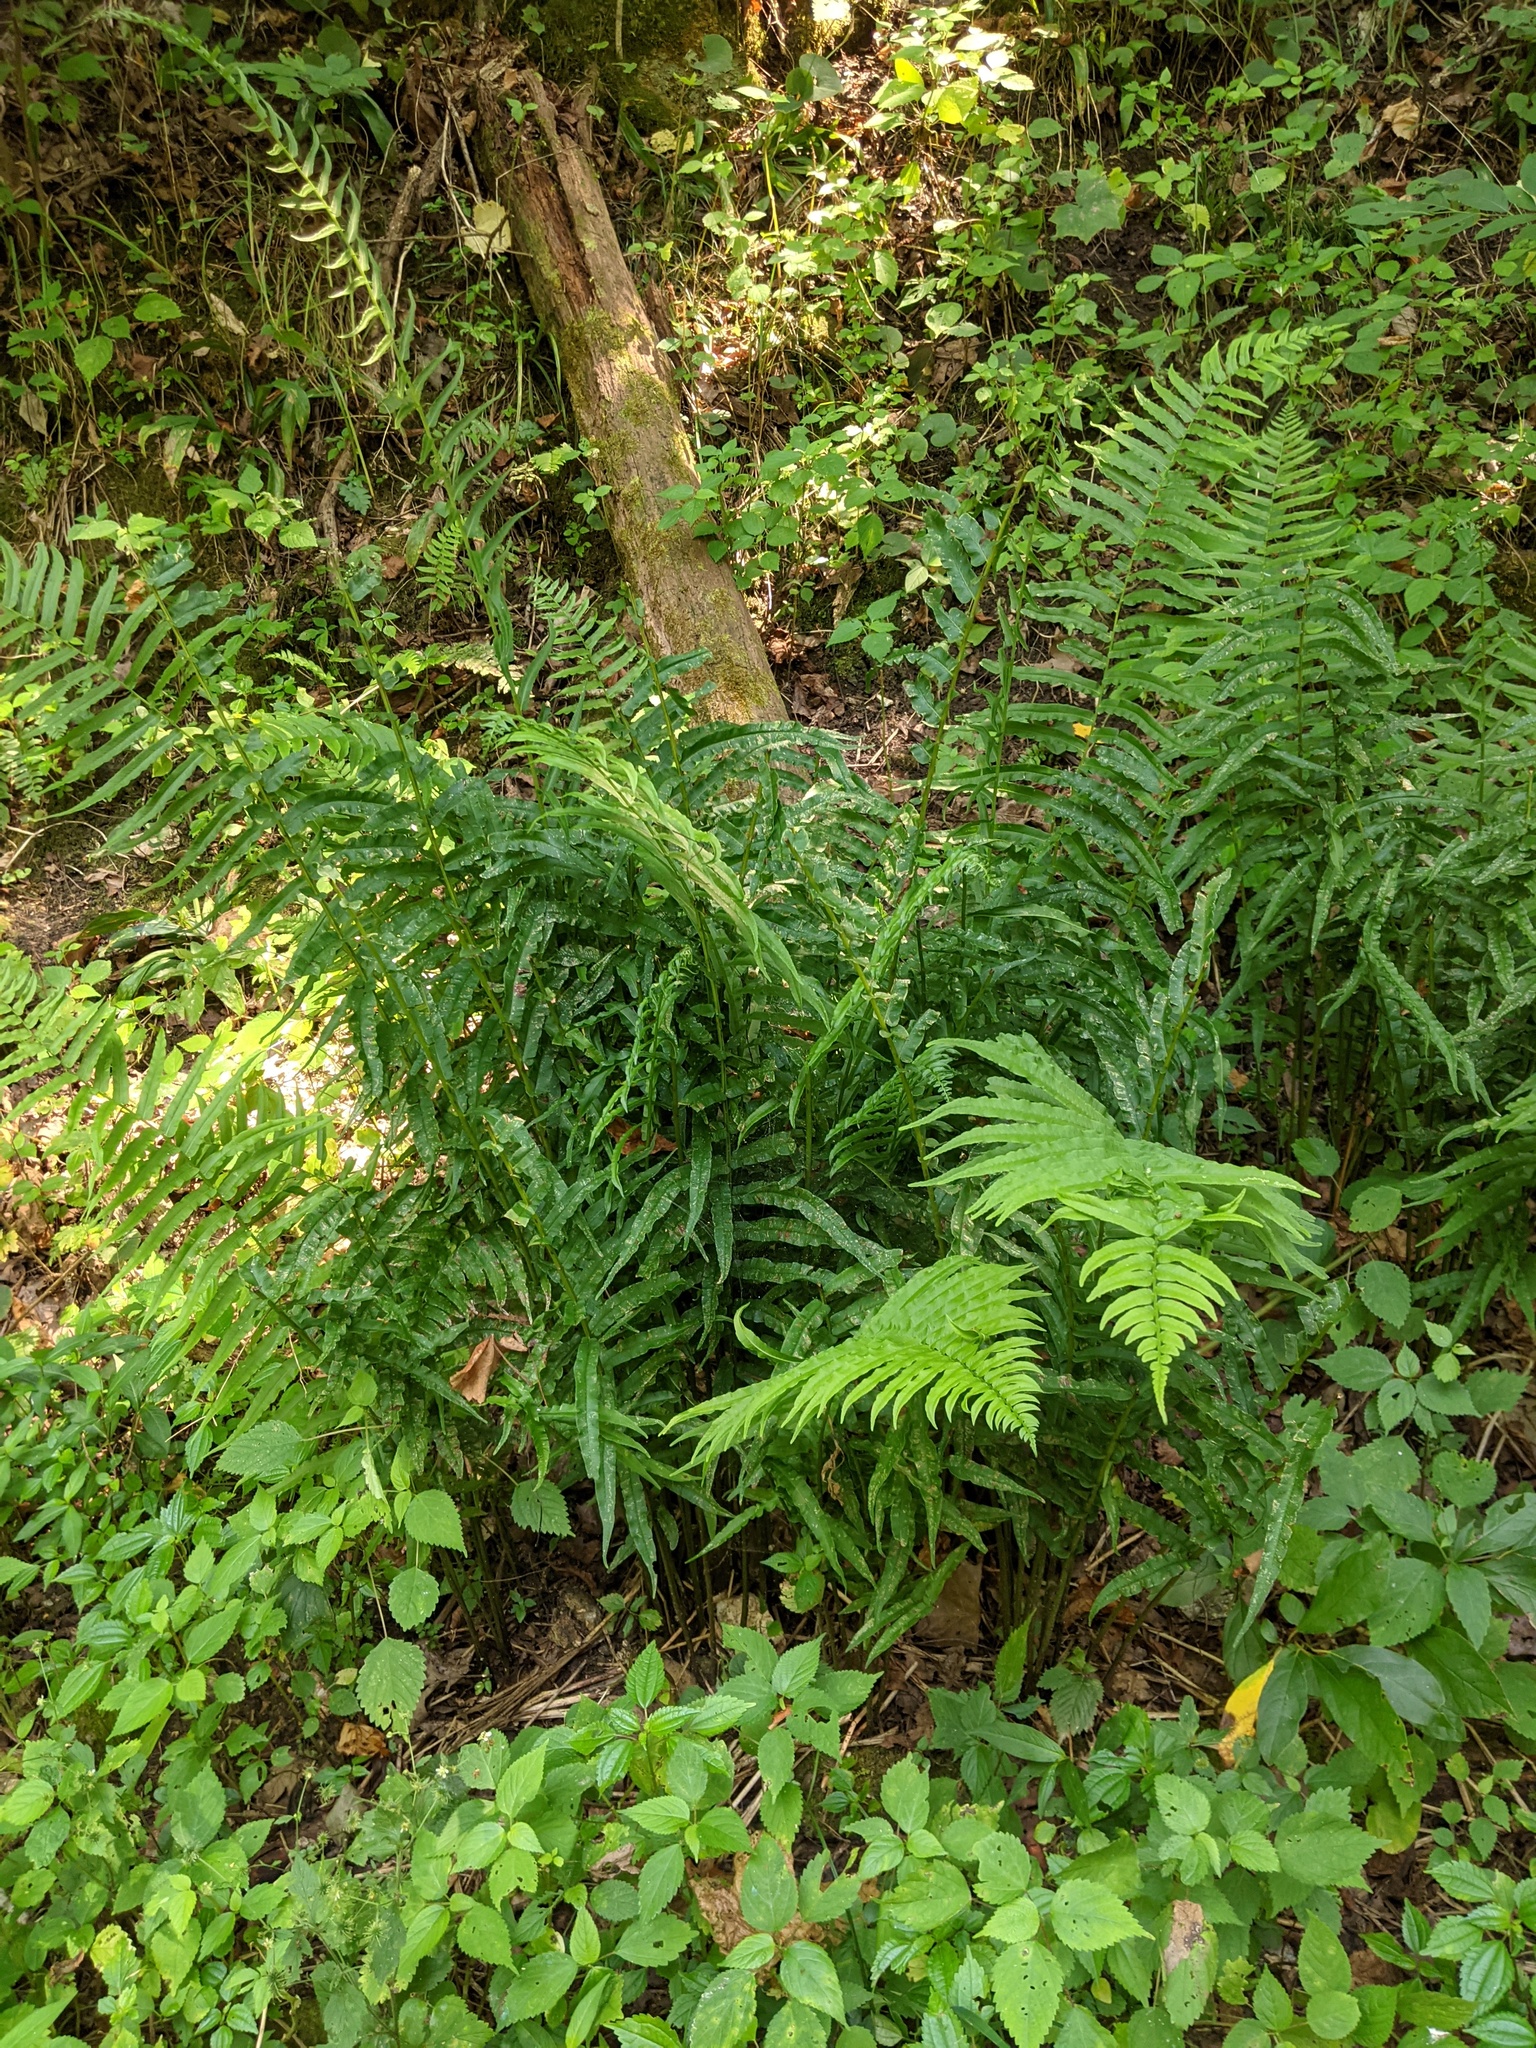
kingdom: Plantae
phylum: Tracheophyta
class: Polypodiopsida
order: Polypodiales
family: Diplaziopsidaceae
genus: Homalosorus
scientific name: Homalosorus pycnocarpos
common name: Glade fern
